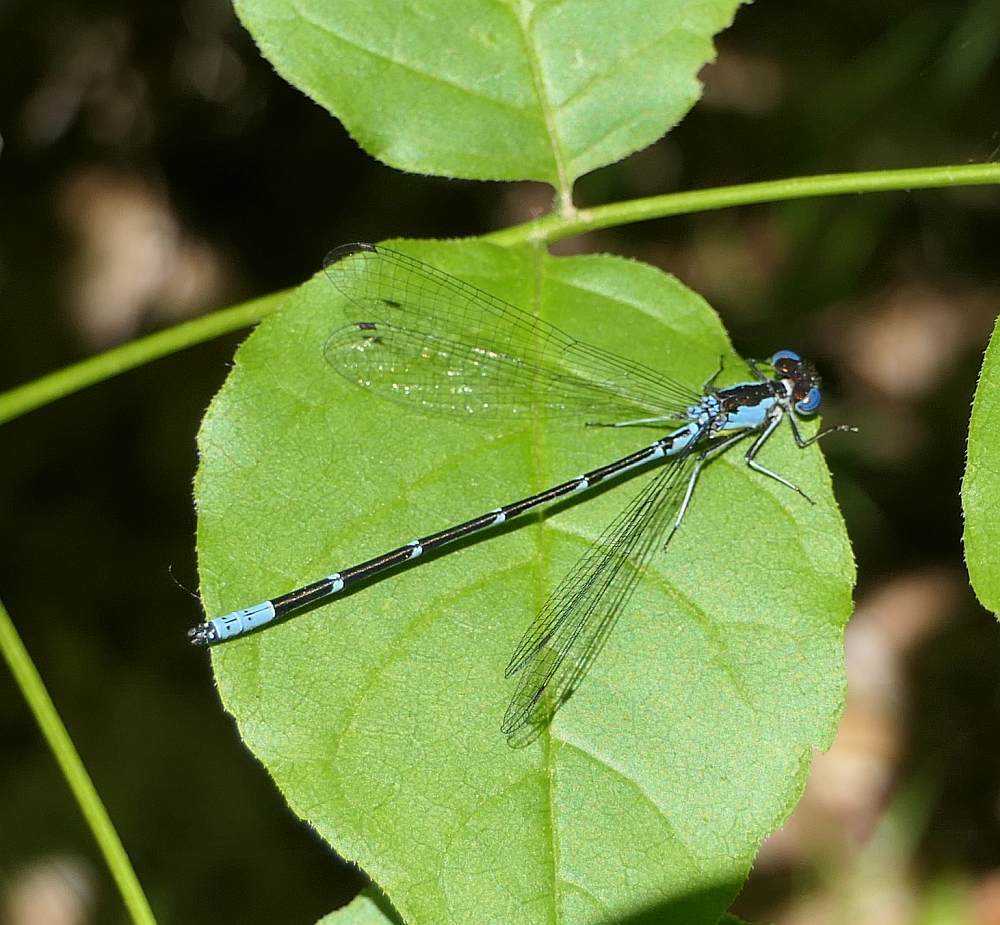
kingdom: Animalia
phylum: Arthropoda
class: Insecta
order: Odonata
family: Coenagrionidae
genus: Chromagrion
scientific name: Chromagrion conditum
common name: Aurora damsel
